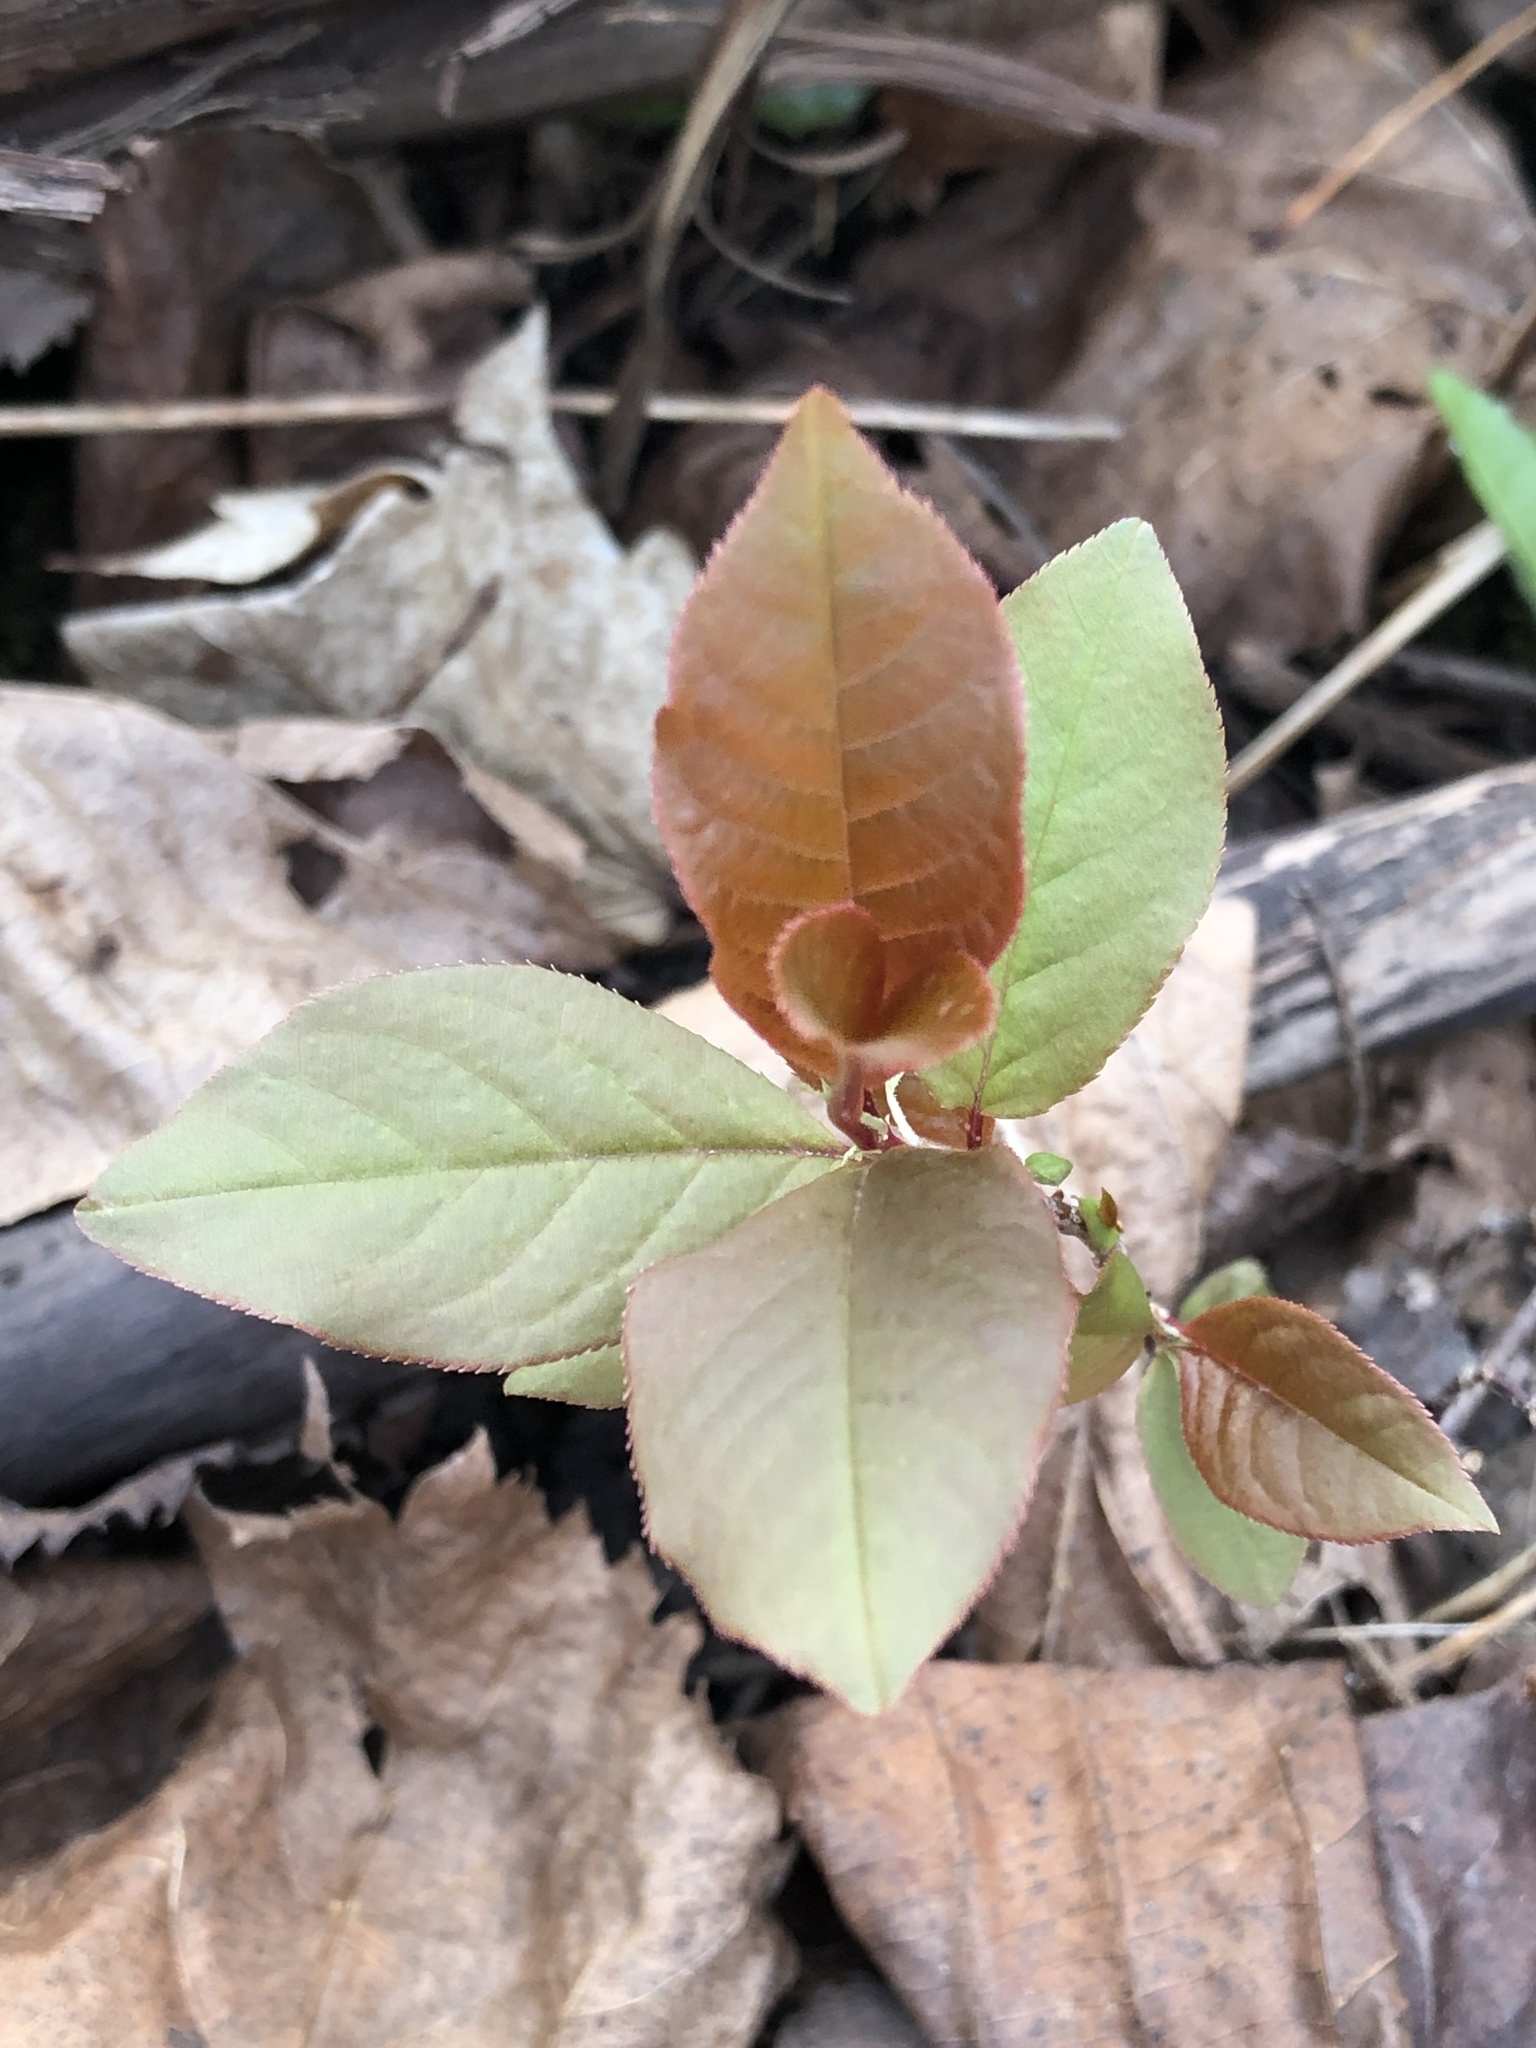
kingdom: Plantae
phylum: Tracheophyta
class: Magnoliopsida
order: Rosales
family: Rosaceae
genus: Prunus
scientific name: Prunus virginiana
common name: Chokecherry
